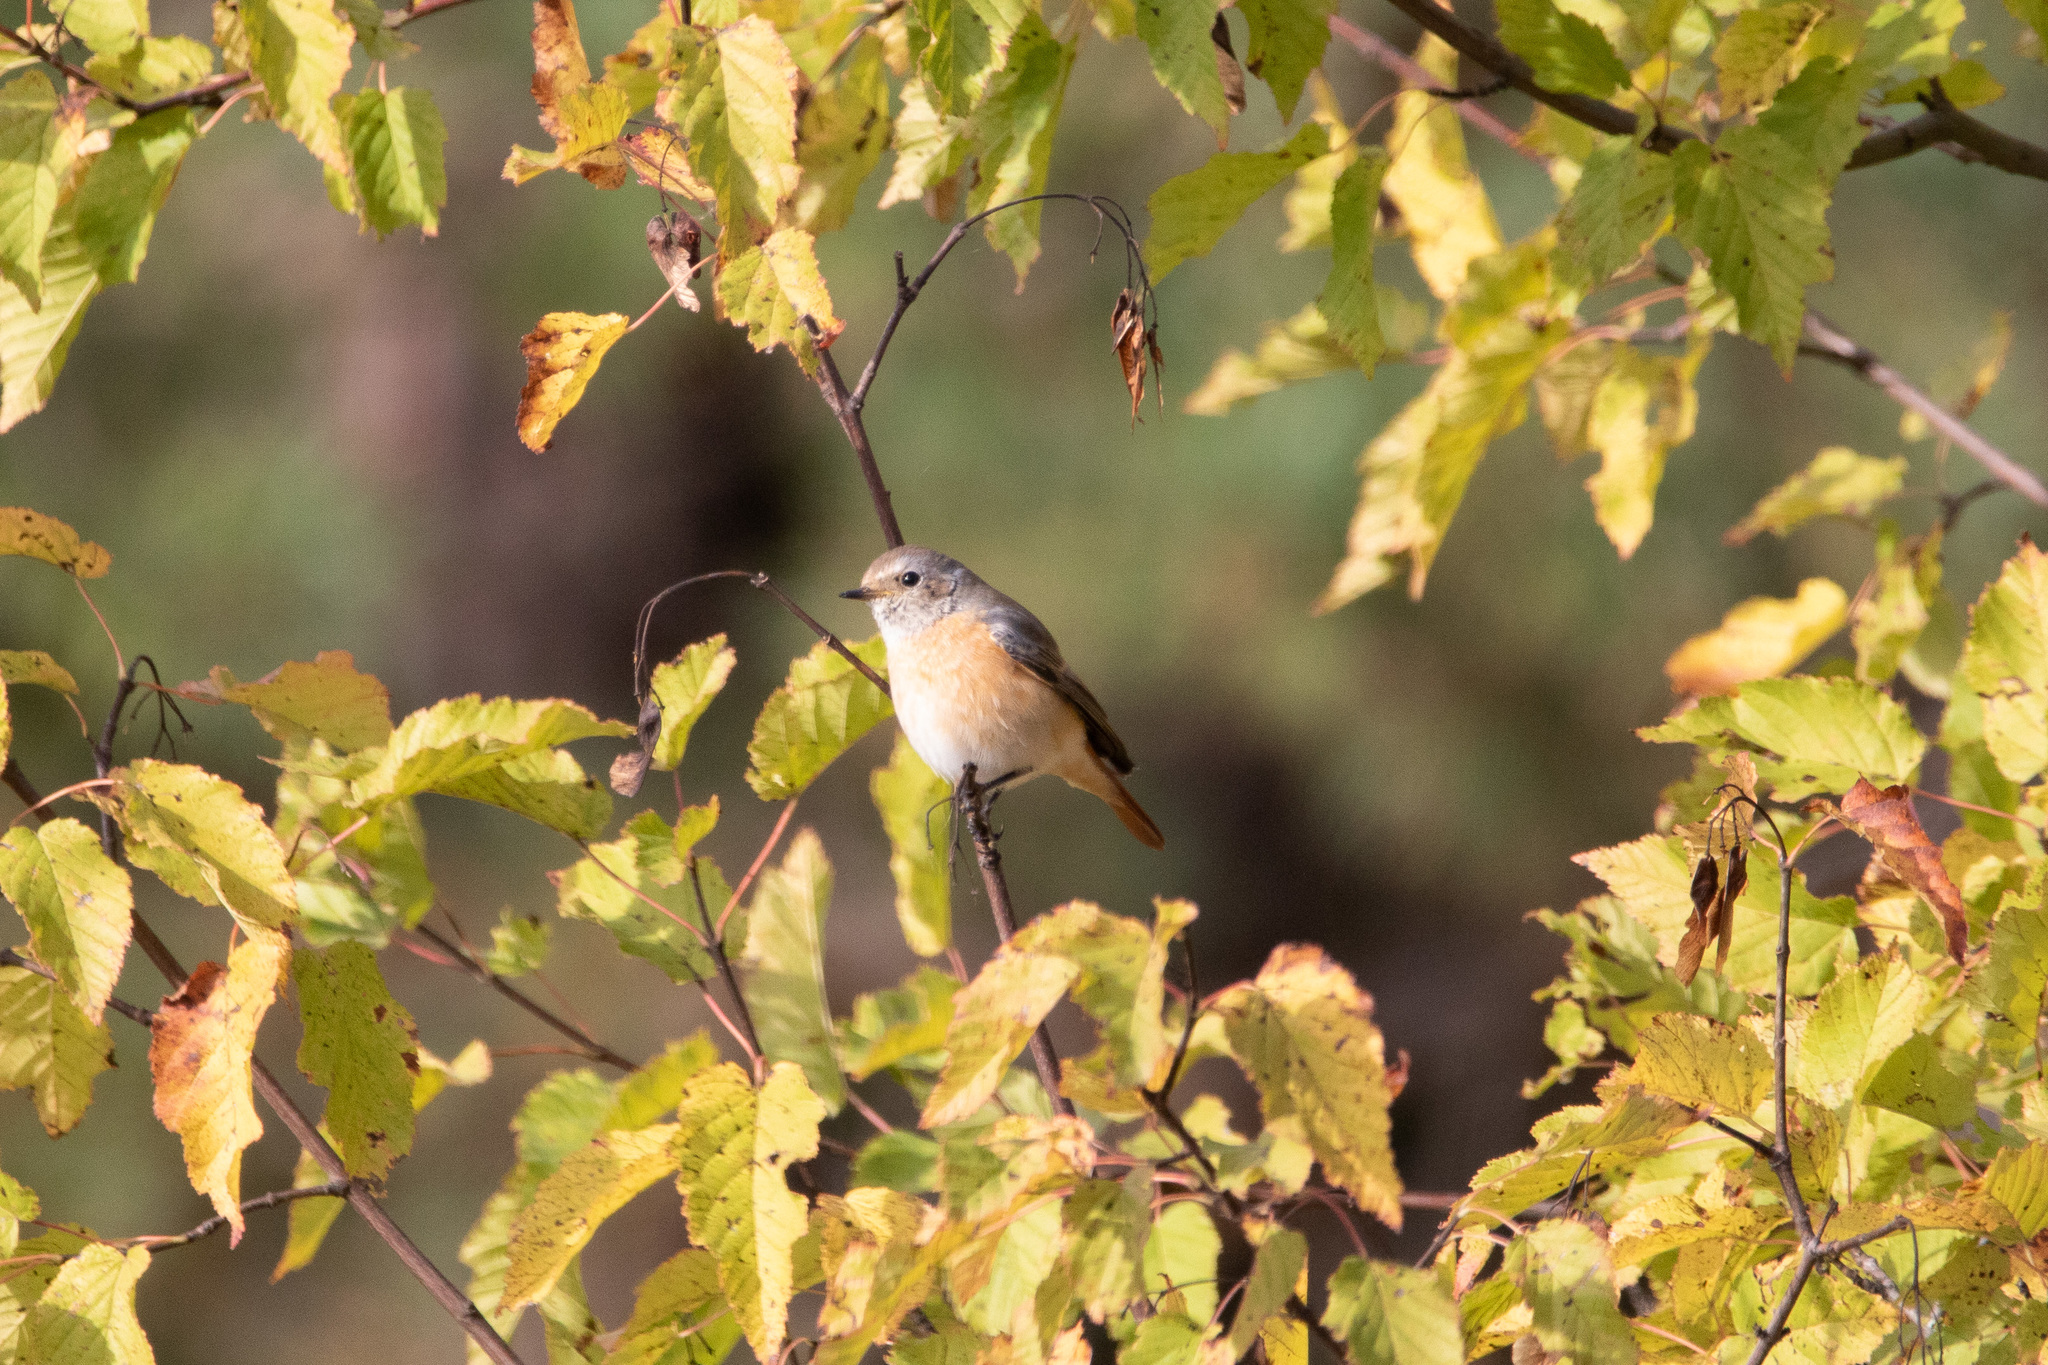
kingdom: Animalia
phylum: Chordata
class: Aves
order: Passeriformes
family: Muscicapidae
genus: Phoenicurus
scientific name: Phoenicurus phoenicurus
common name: Common redstart
